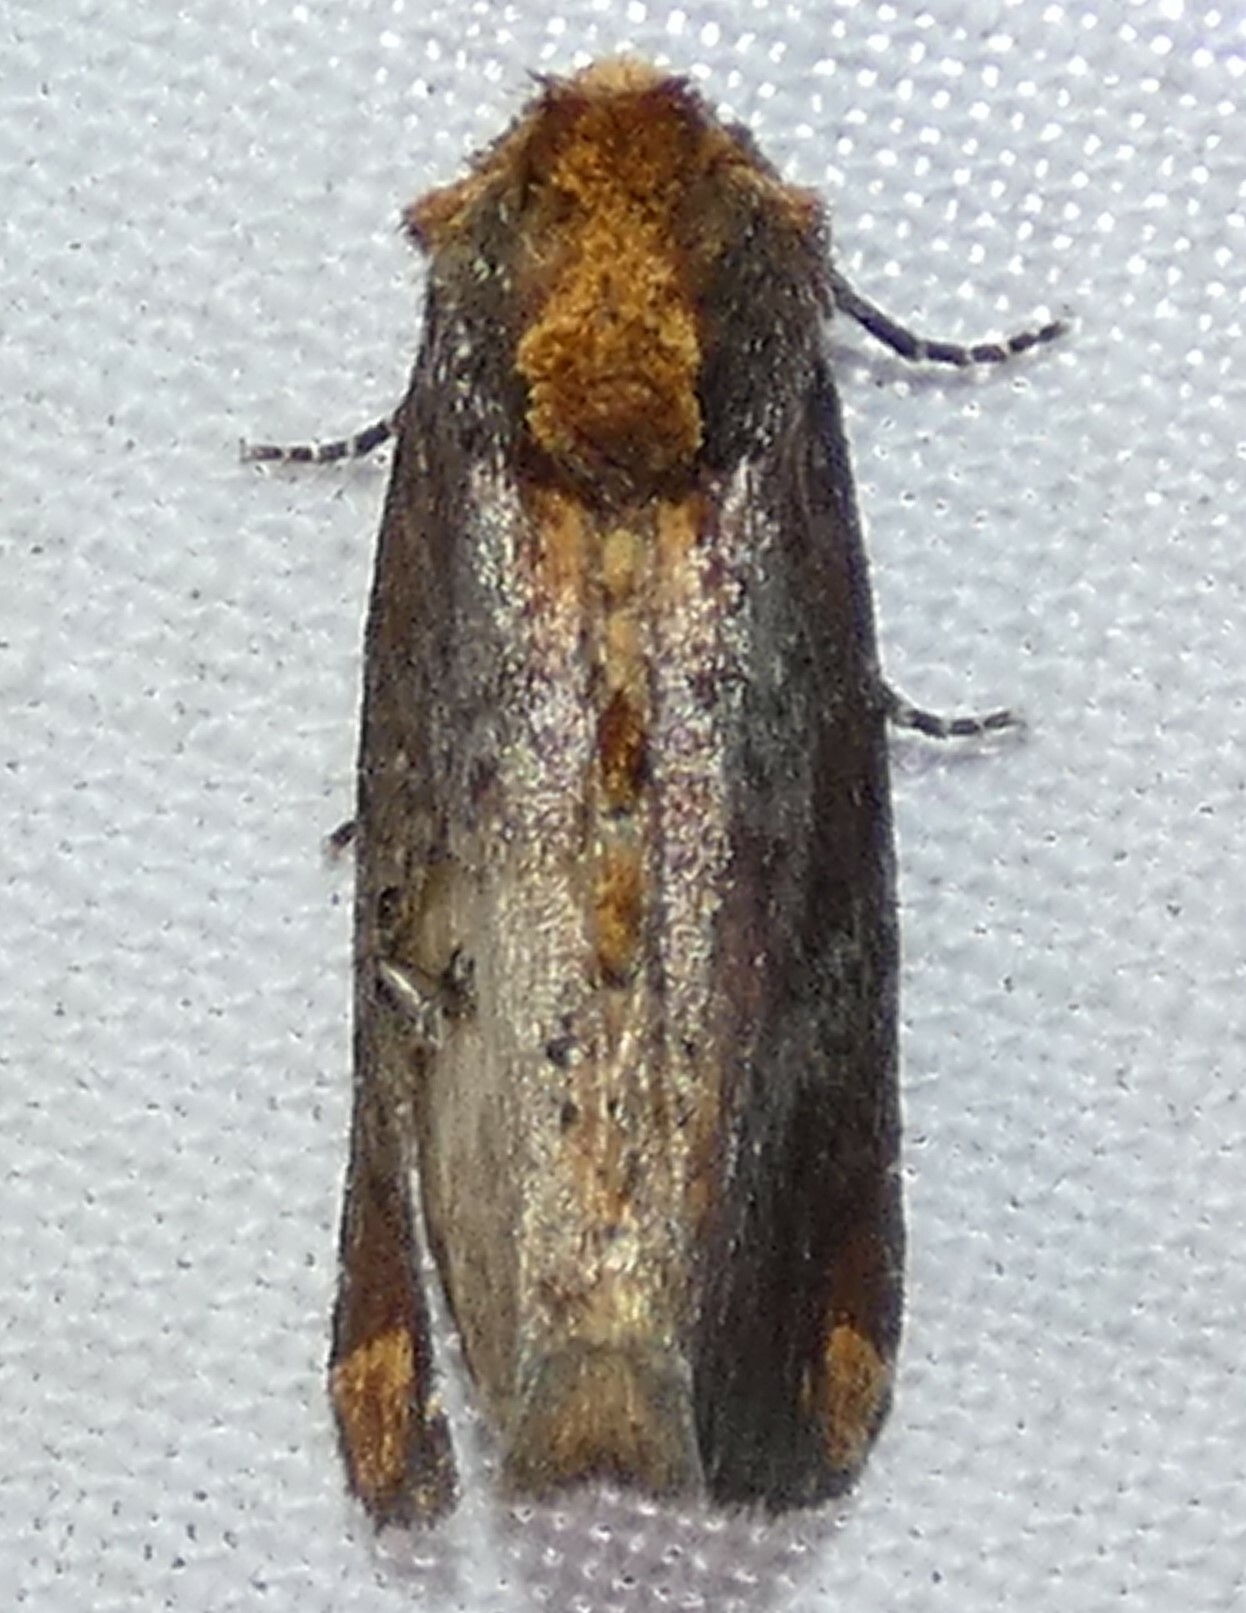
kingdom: Animalia
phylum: Arthropoda
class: Insecta
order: Lepidoptera
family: Noctuidae
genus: Achatodes
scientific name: Achatodes zeae
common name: Elder shoot borer
